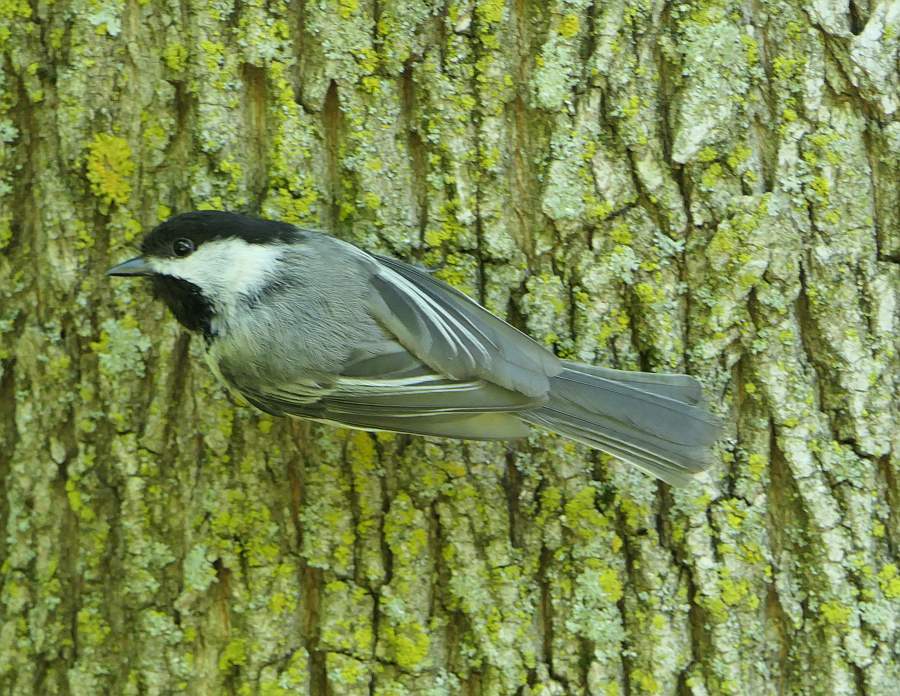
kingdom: Animalia
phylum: Chordata
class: Aves
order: Passeriformes
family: Paridae
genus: Poecile
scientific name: Poecile atricapillus
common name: Black-capped chickadee
